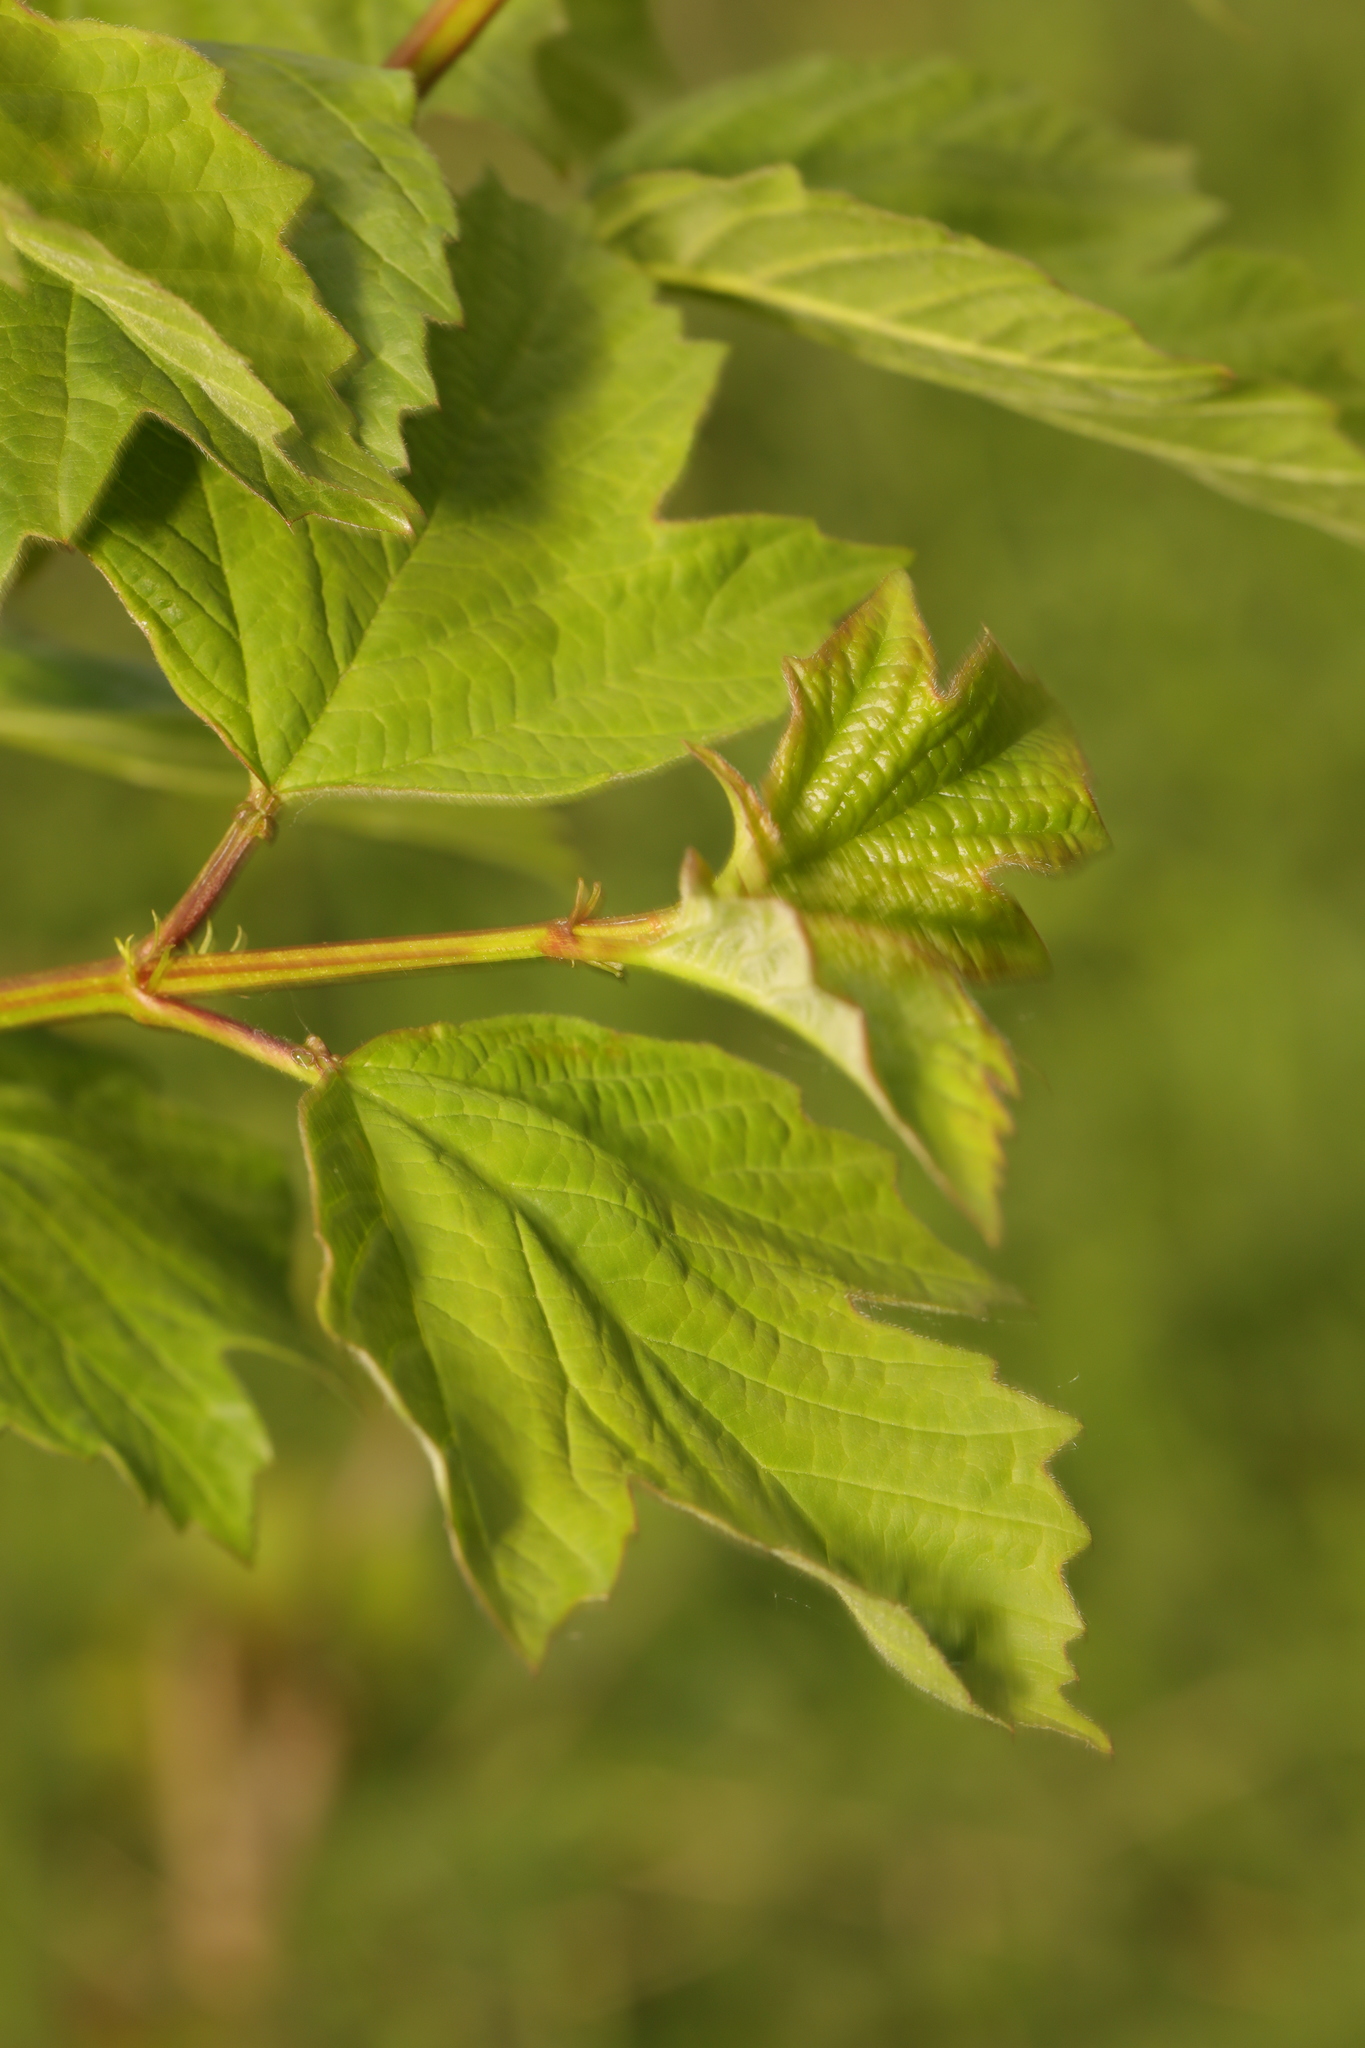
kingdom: Plantae
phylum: Tracheophyta
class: Magnoliopsida
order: Dipsacales
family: Viburnaceae
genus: Viburnum
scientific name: Viburnum opulus
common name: Guelder-rose
